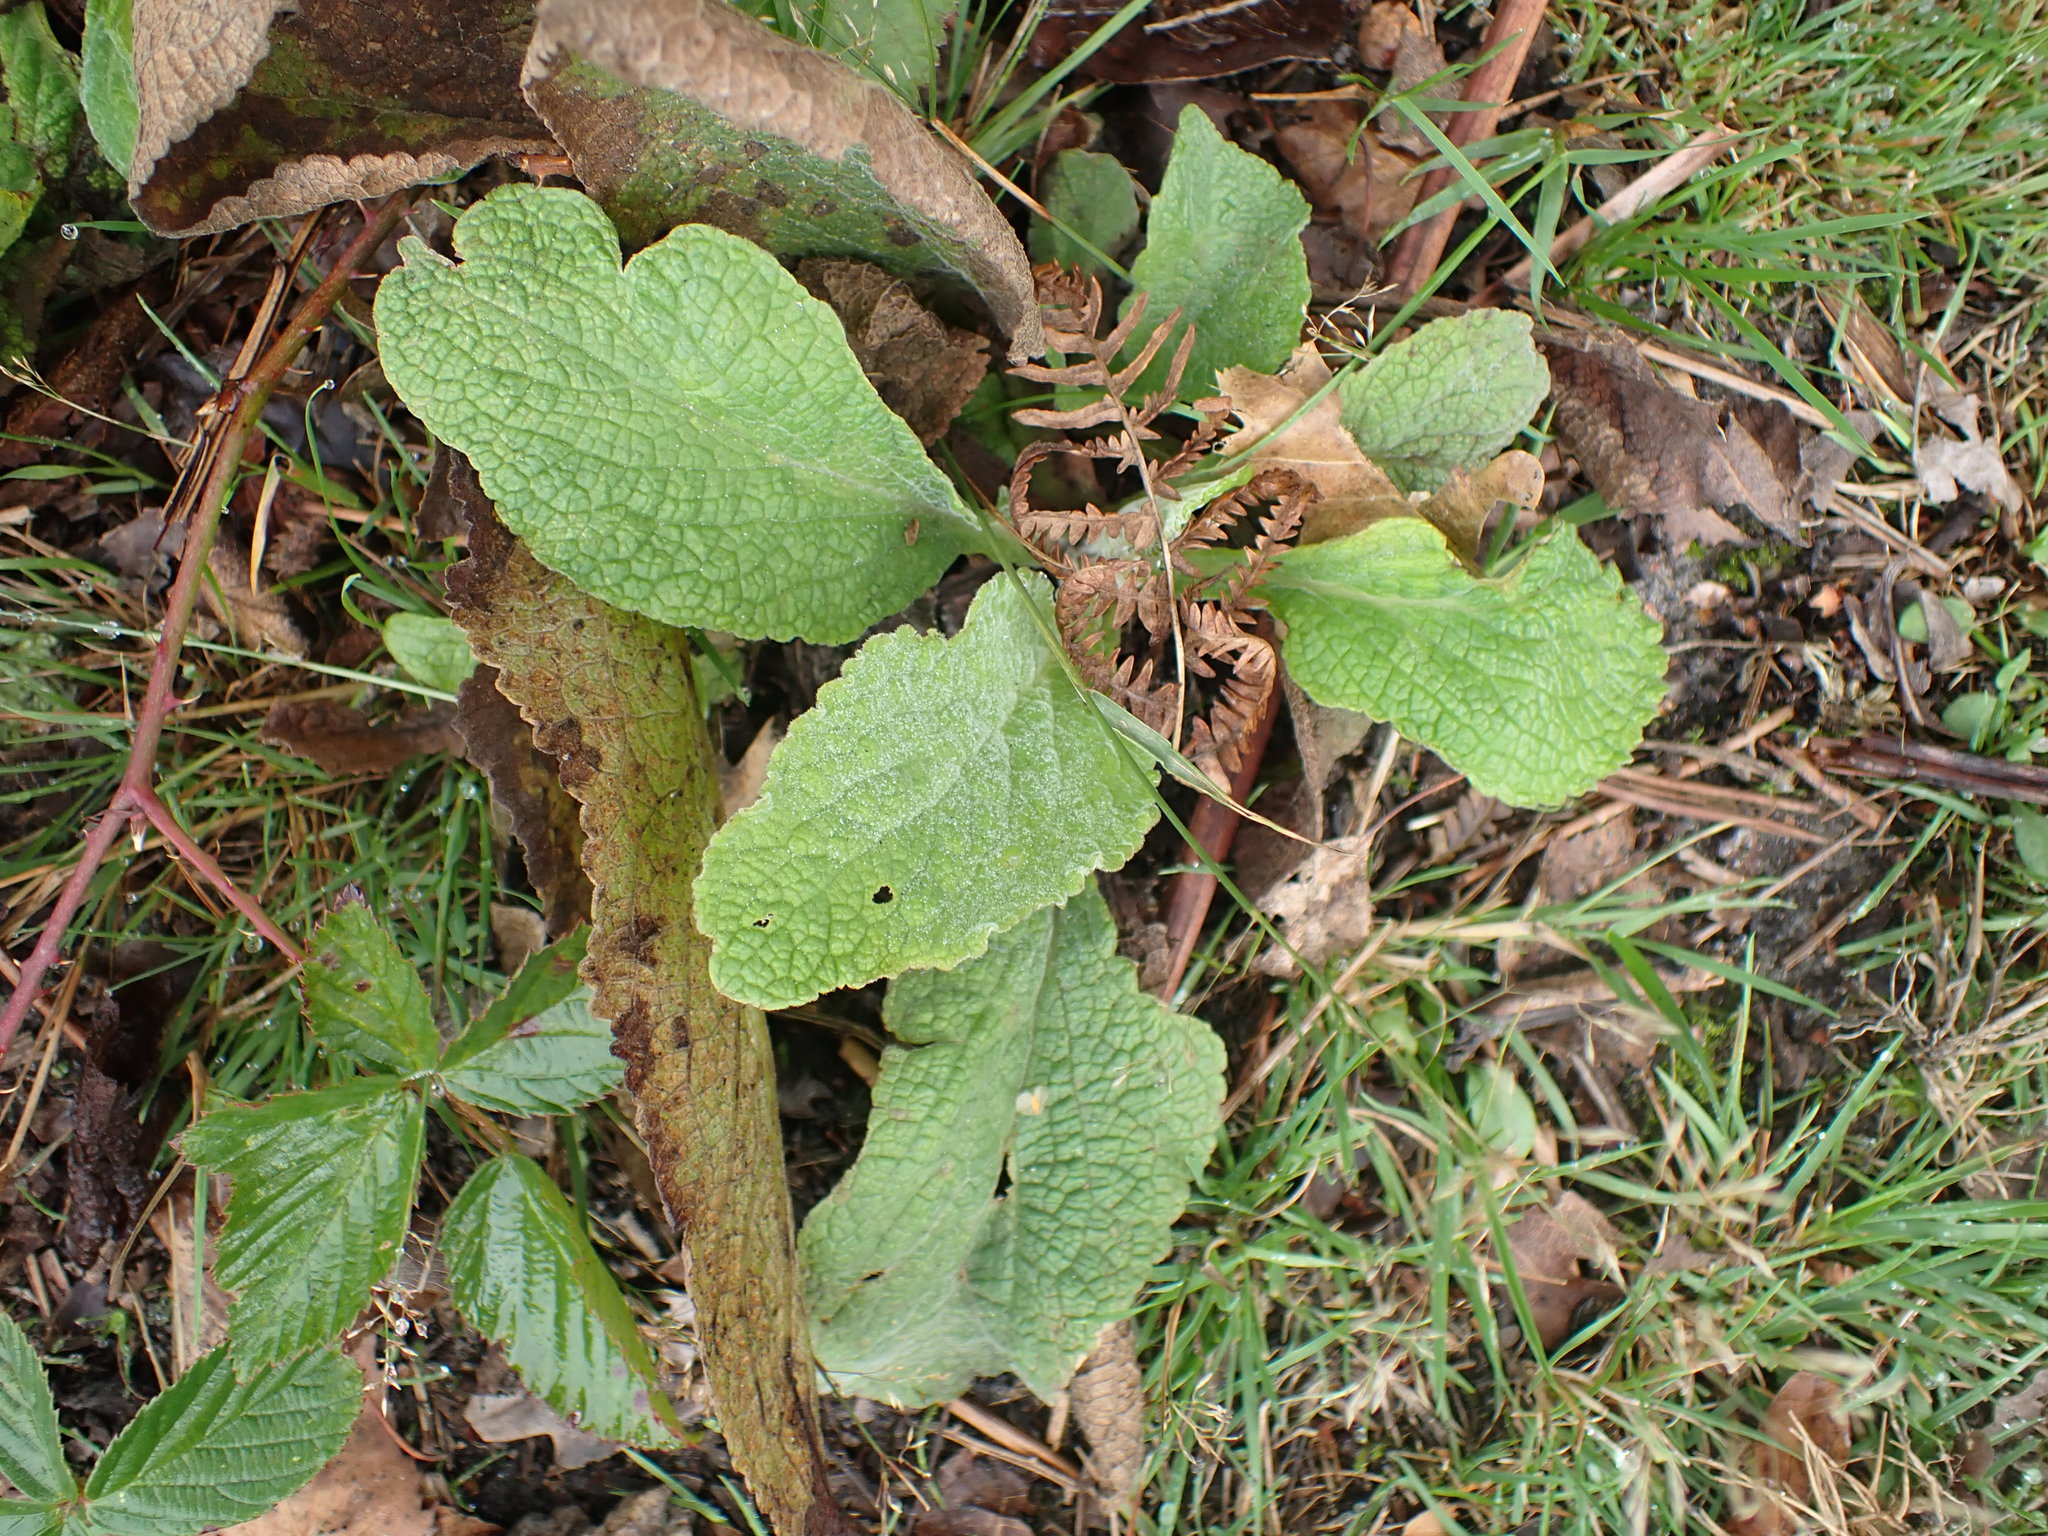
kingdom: Plantae
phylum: Tracheophyta
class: Magnoliopsida
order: Lamiales
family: Plantaginaceae
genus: Digitalis
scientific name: Digitalis purpurea
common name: Foxglove
